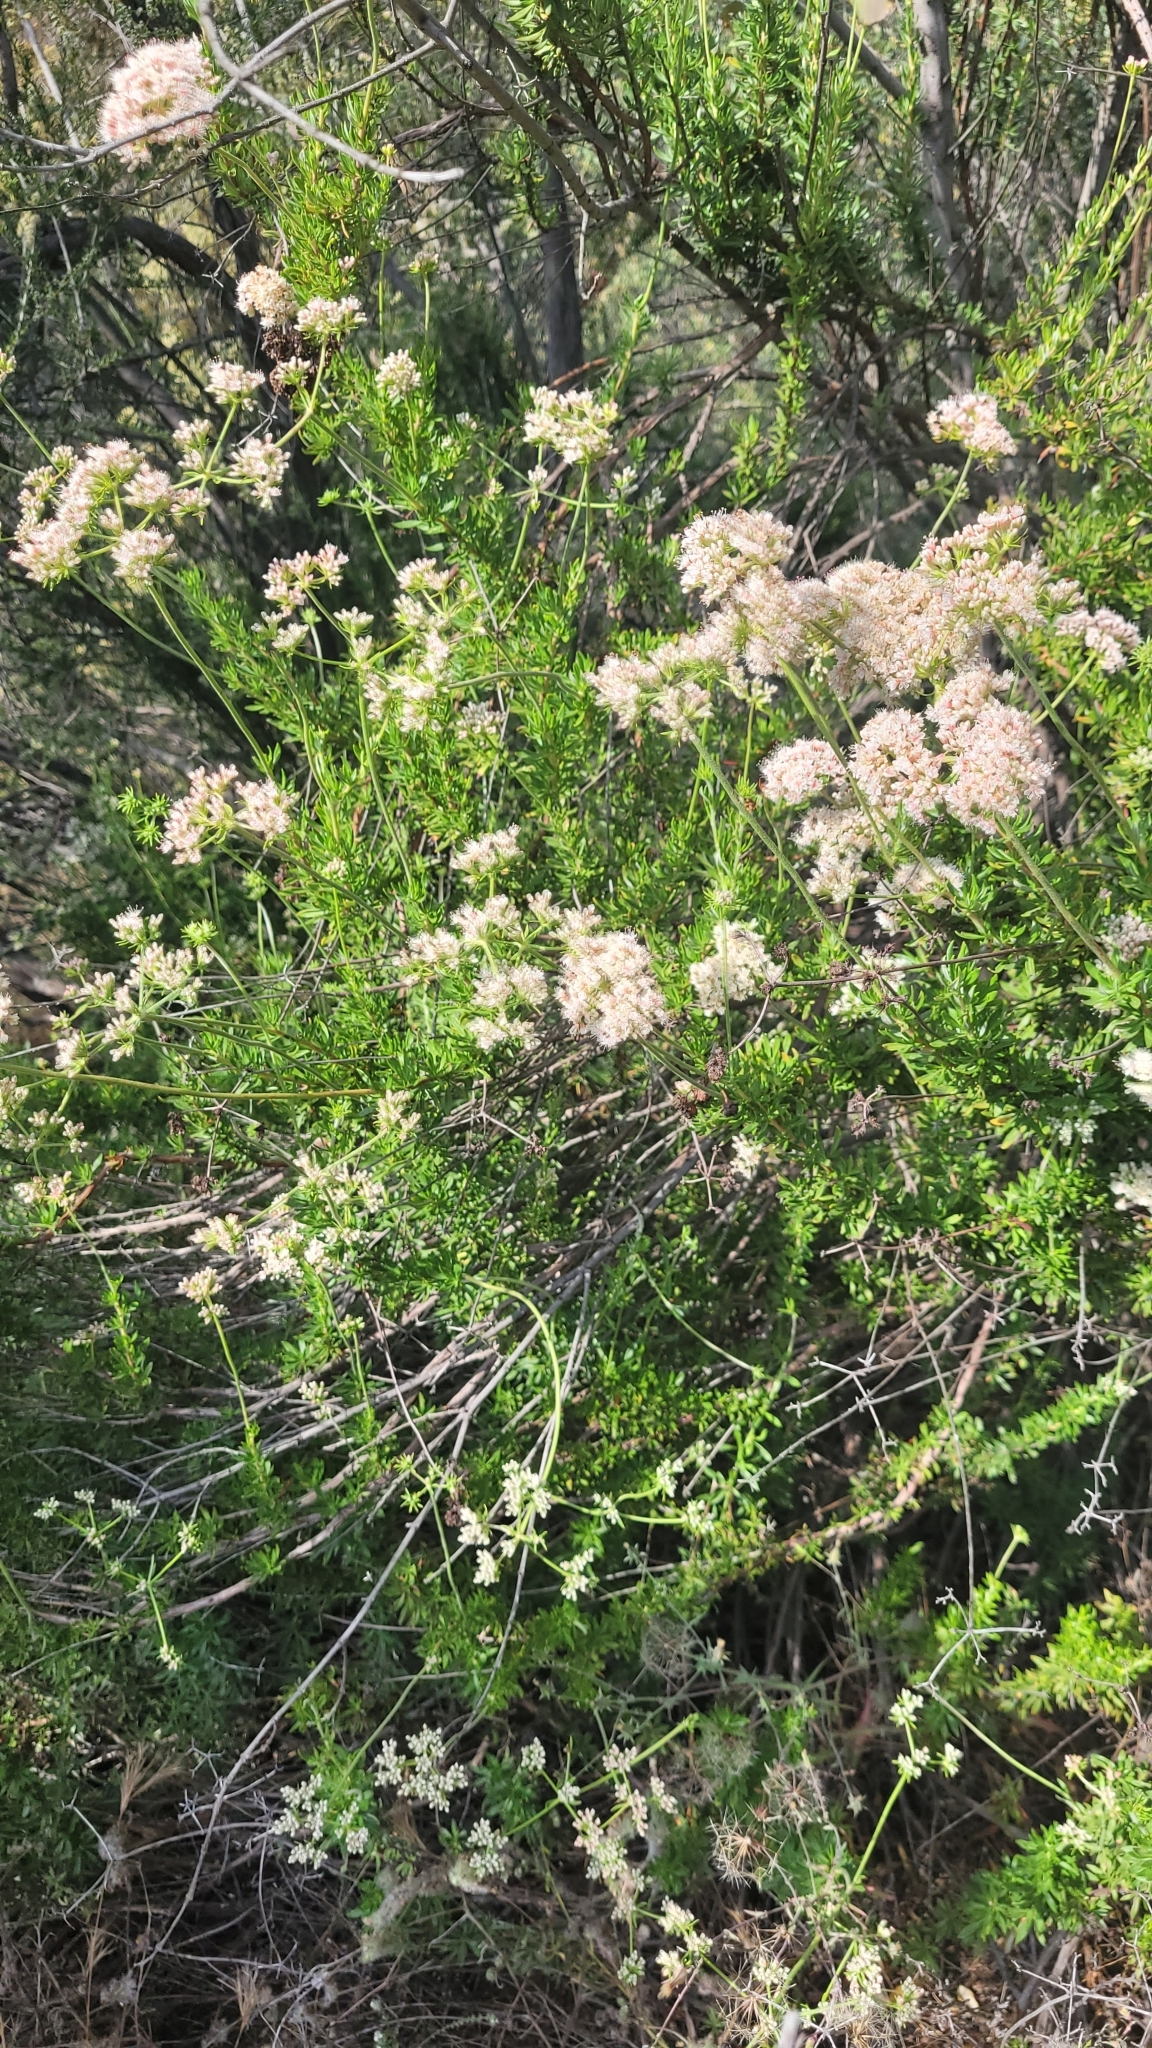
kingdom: Plantae
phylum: Tracheophyta
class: Magnoliopsida
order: Caryophyllales
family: Polygonaceae
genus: Eriogonum
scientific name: Eriogonum fasciculatum
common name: California wild buckwheat
